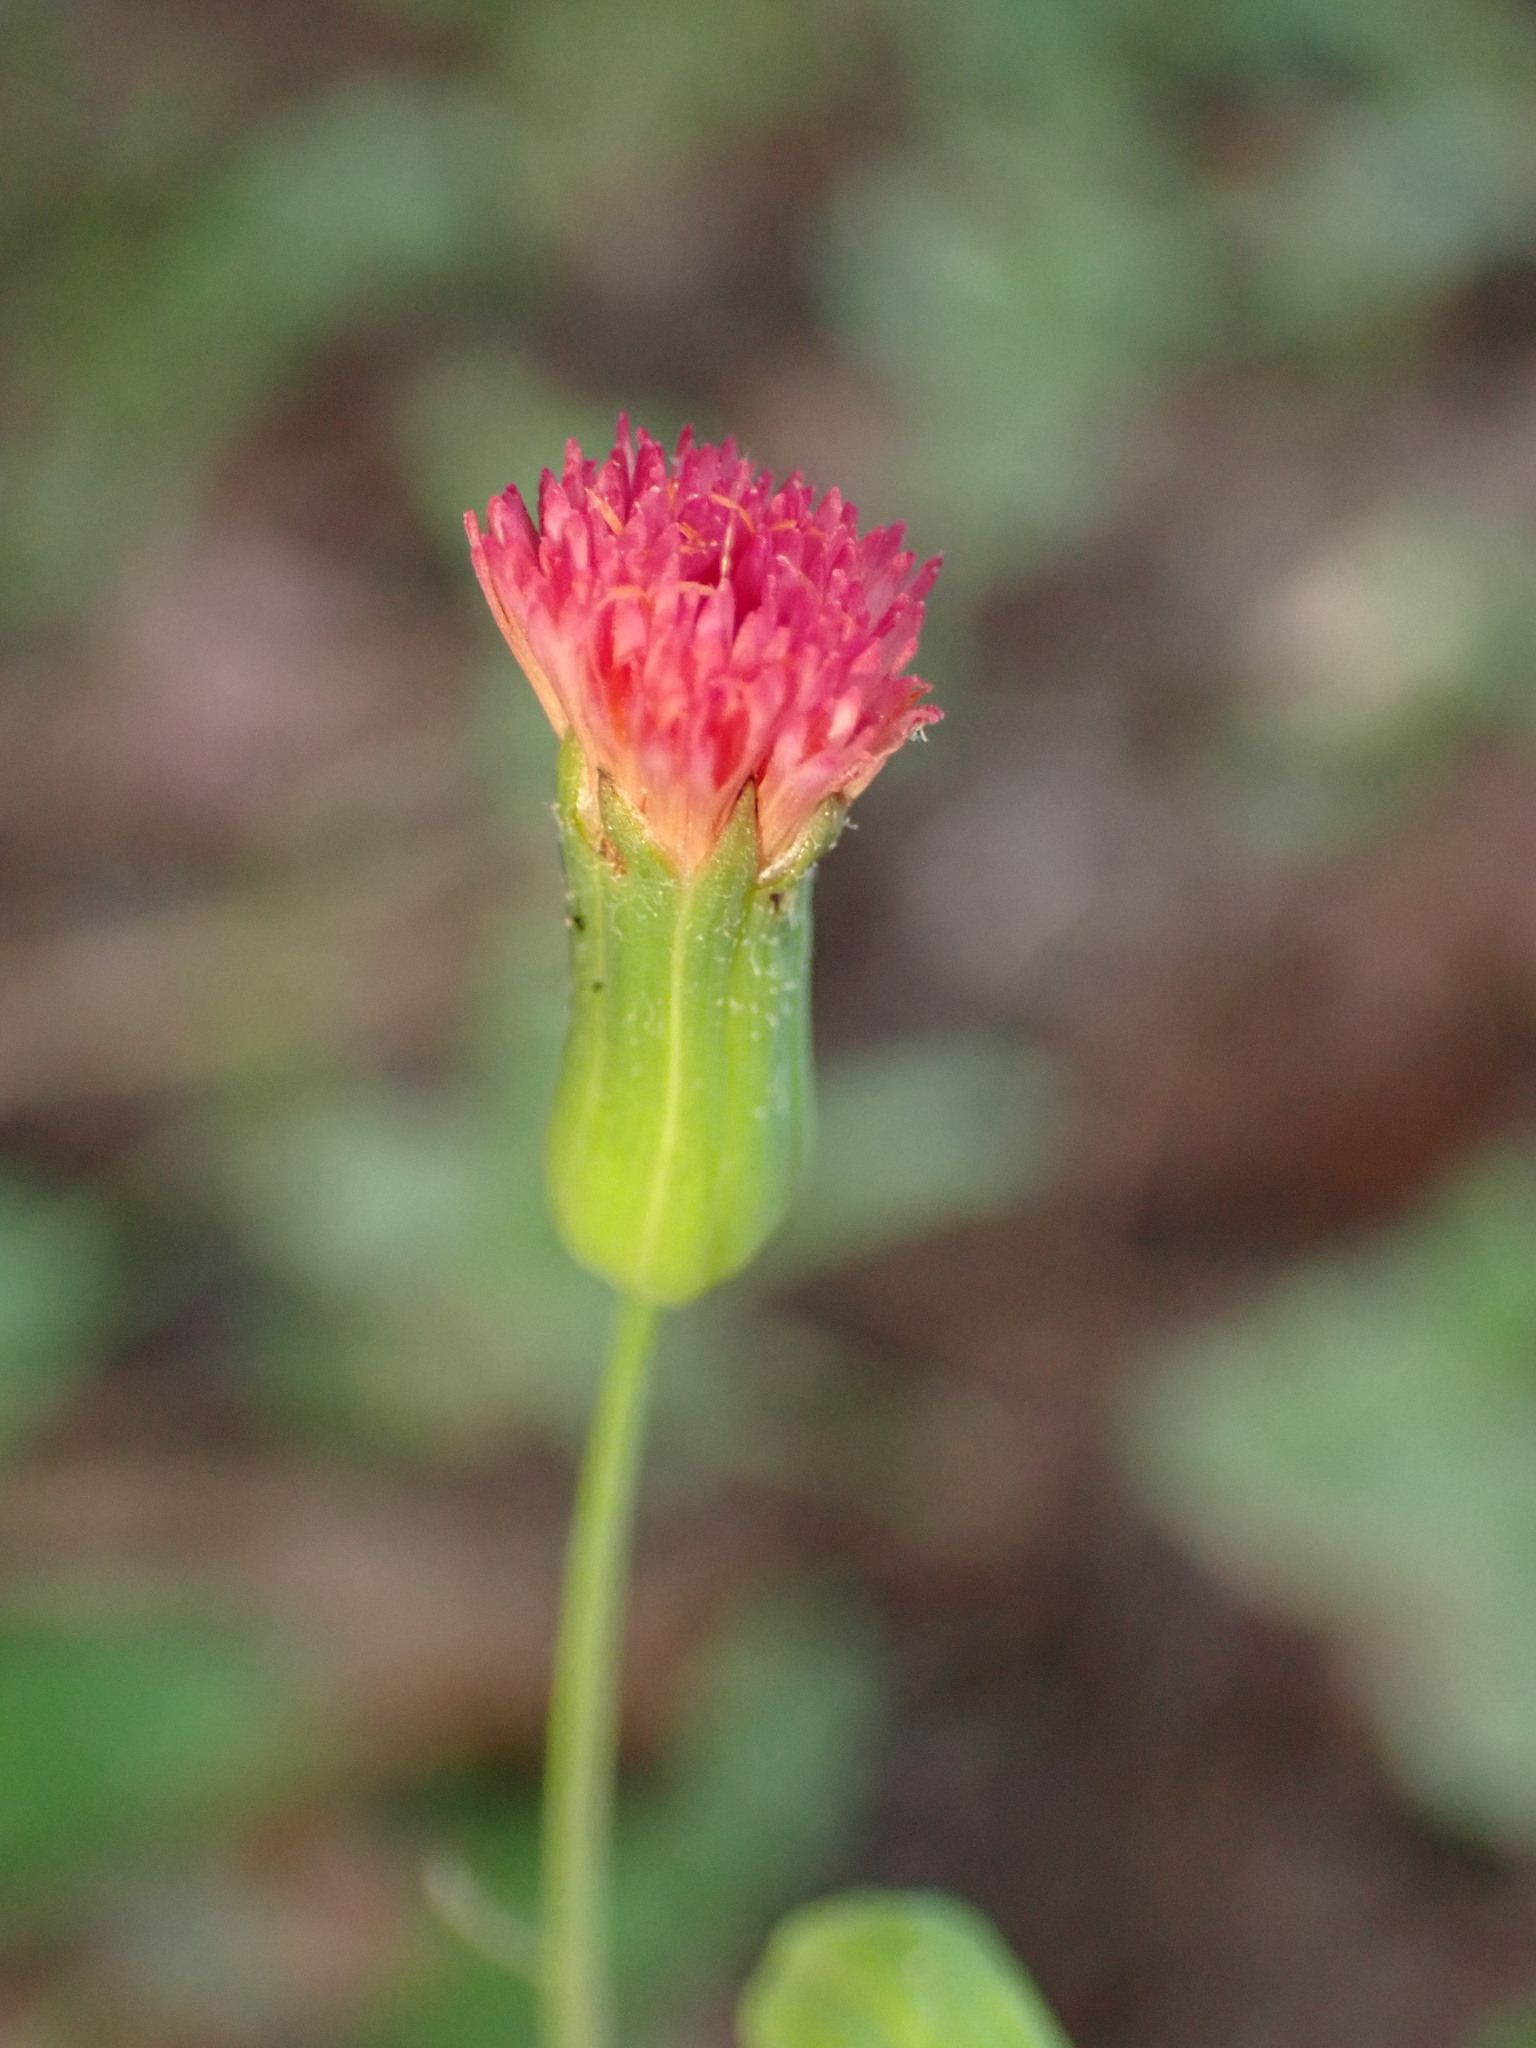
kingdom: Plantae
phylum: Tracheophyta
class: Magnoliopsida
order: Asterales
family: Asteraceae
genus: Emilia
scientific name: Emilia fosbergii
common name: Florida tasselflower
